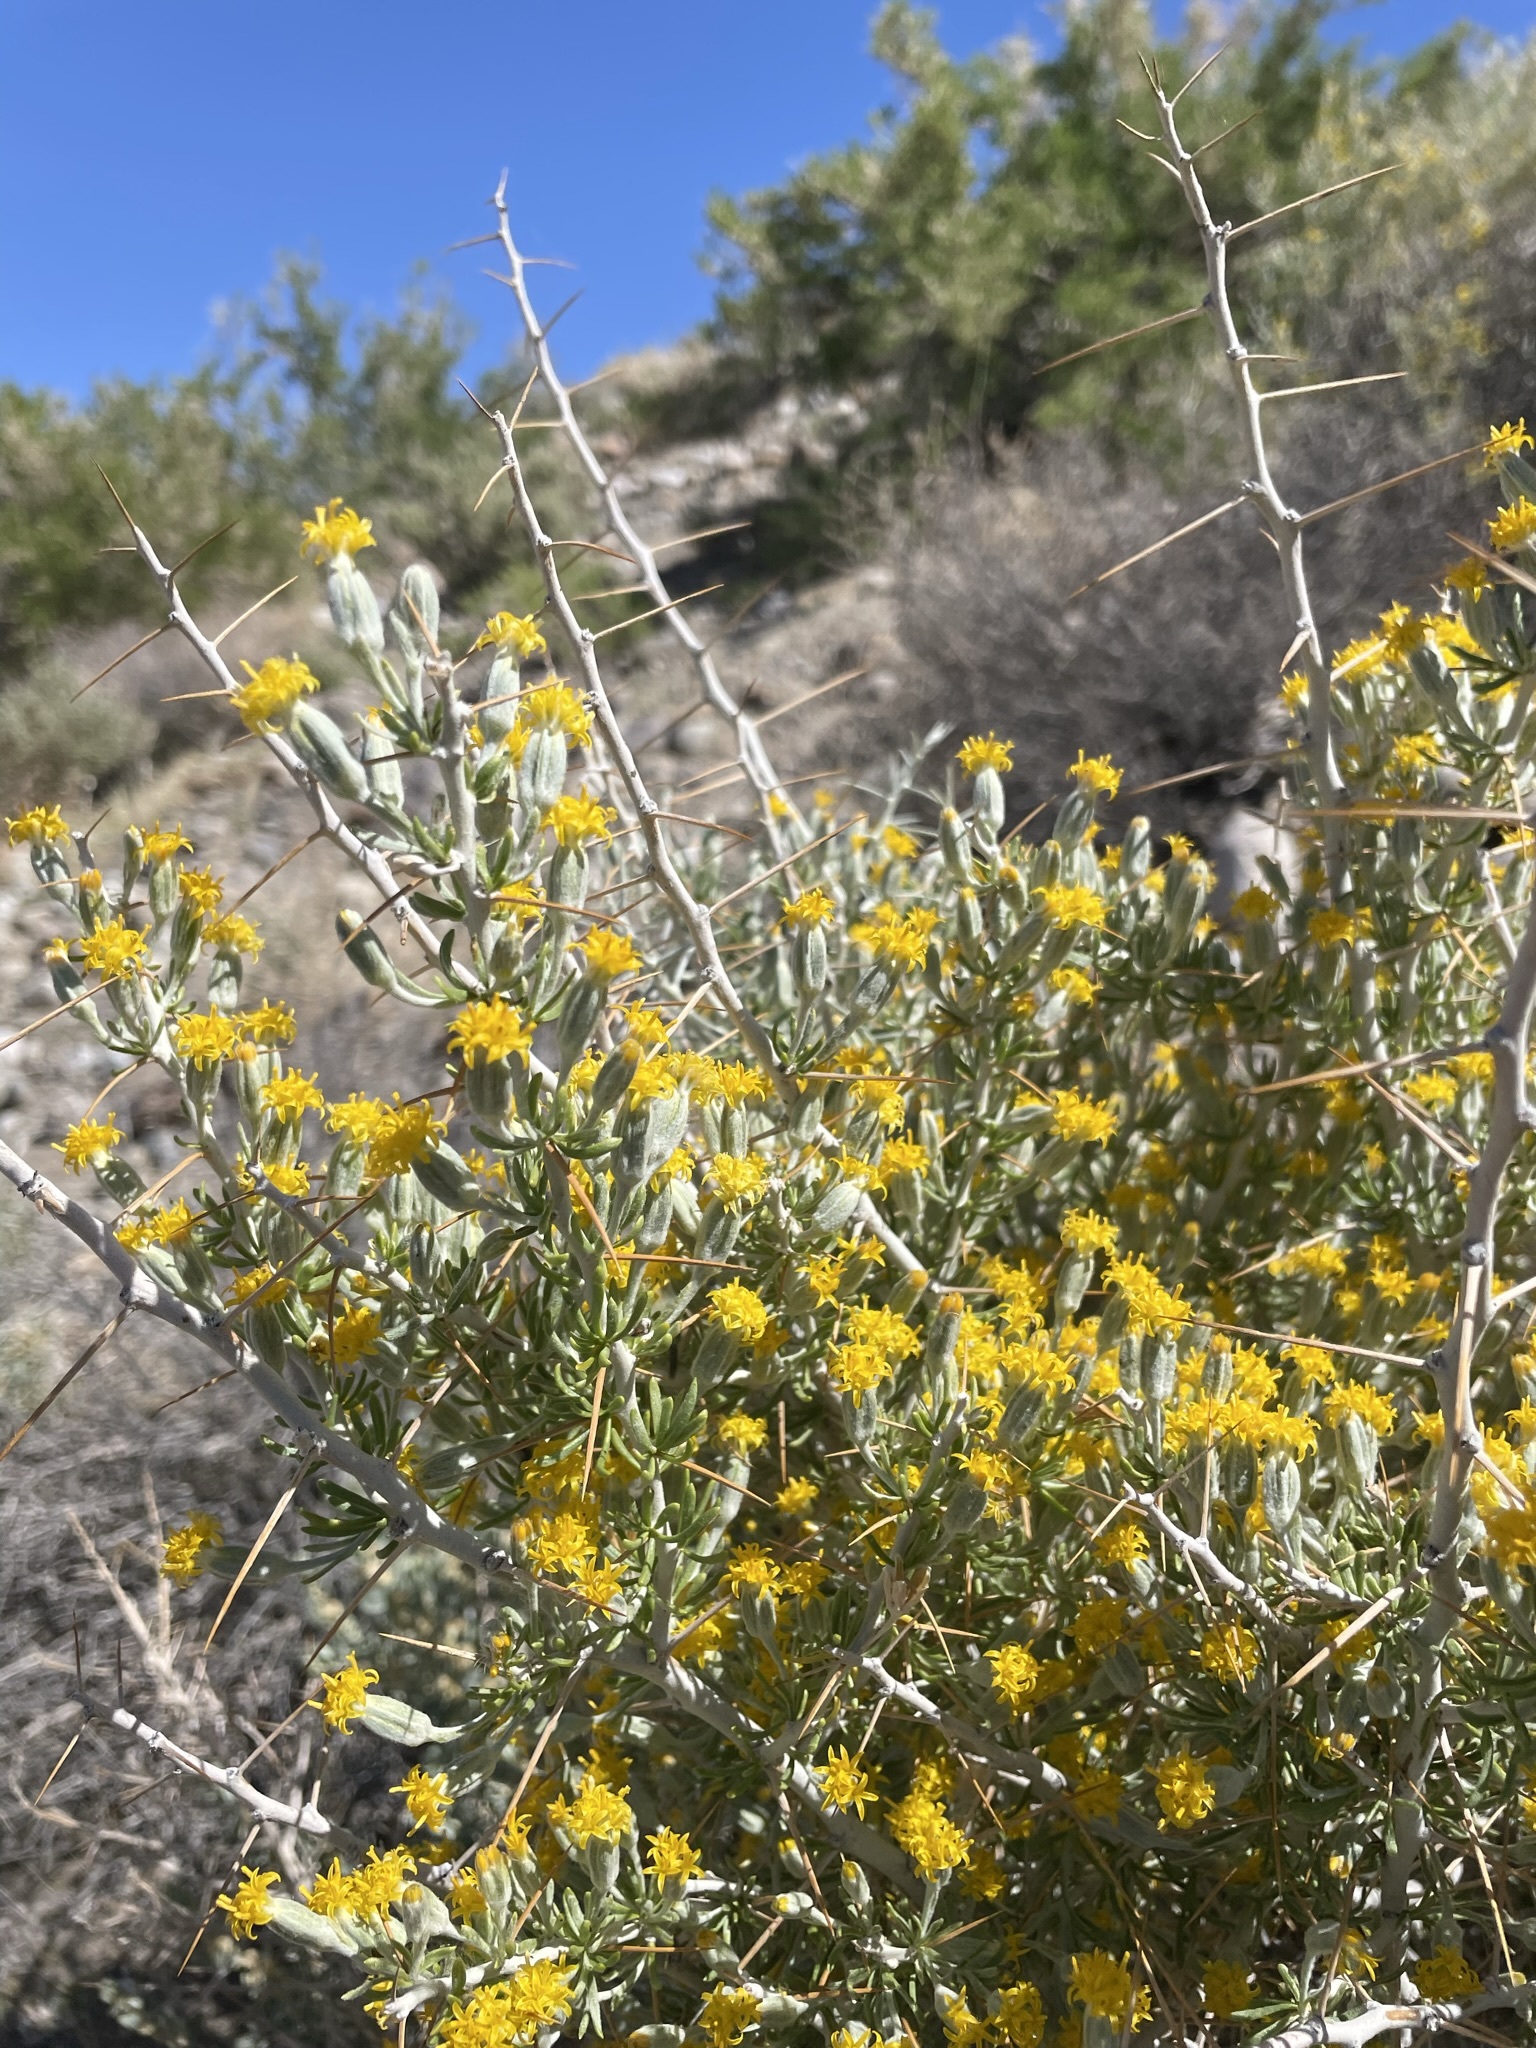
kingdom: Plantae
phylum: Tracheophyta
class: Magnoliopsida
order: Asterales
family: Asteraceae
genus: Tetradymia
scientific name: Tetradymia axillaris
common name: Long-spine horsebrush
